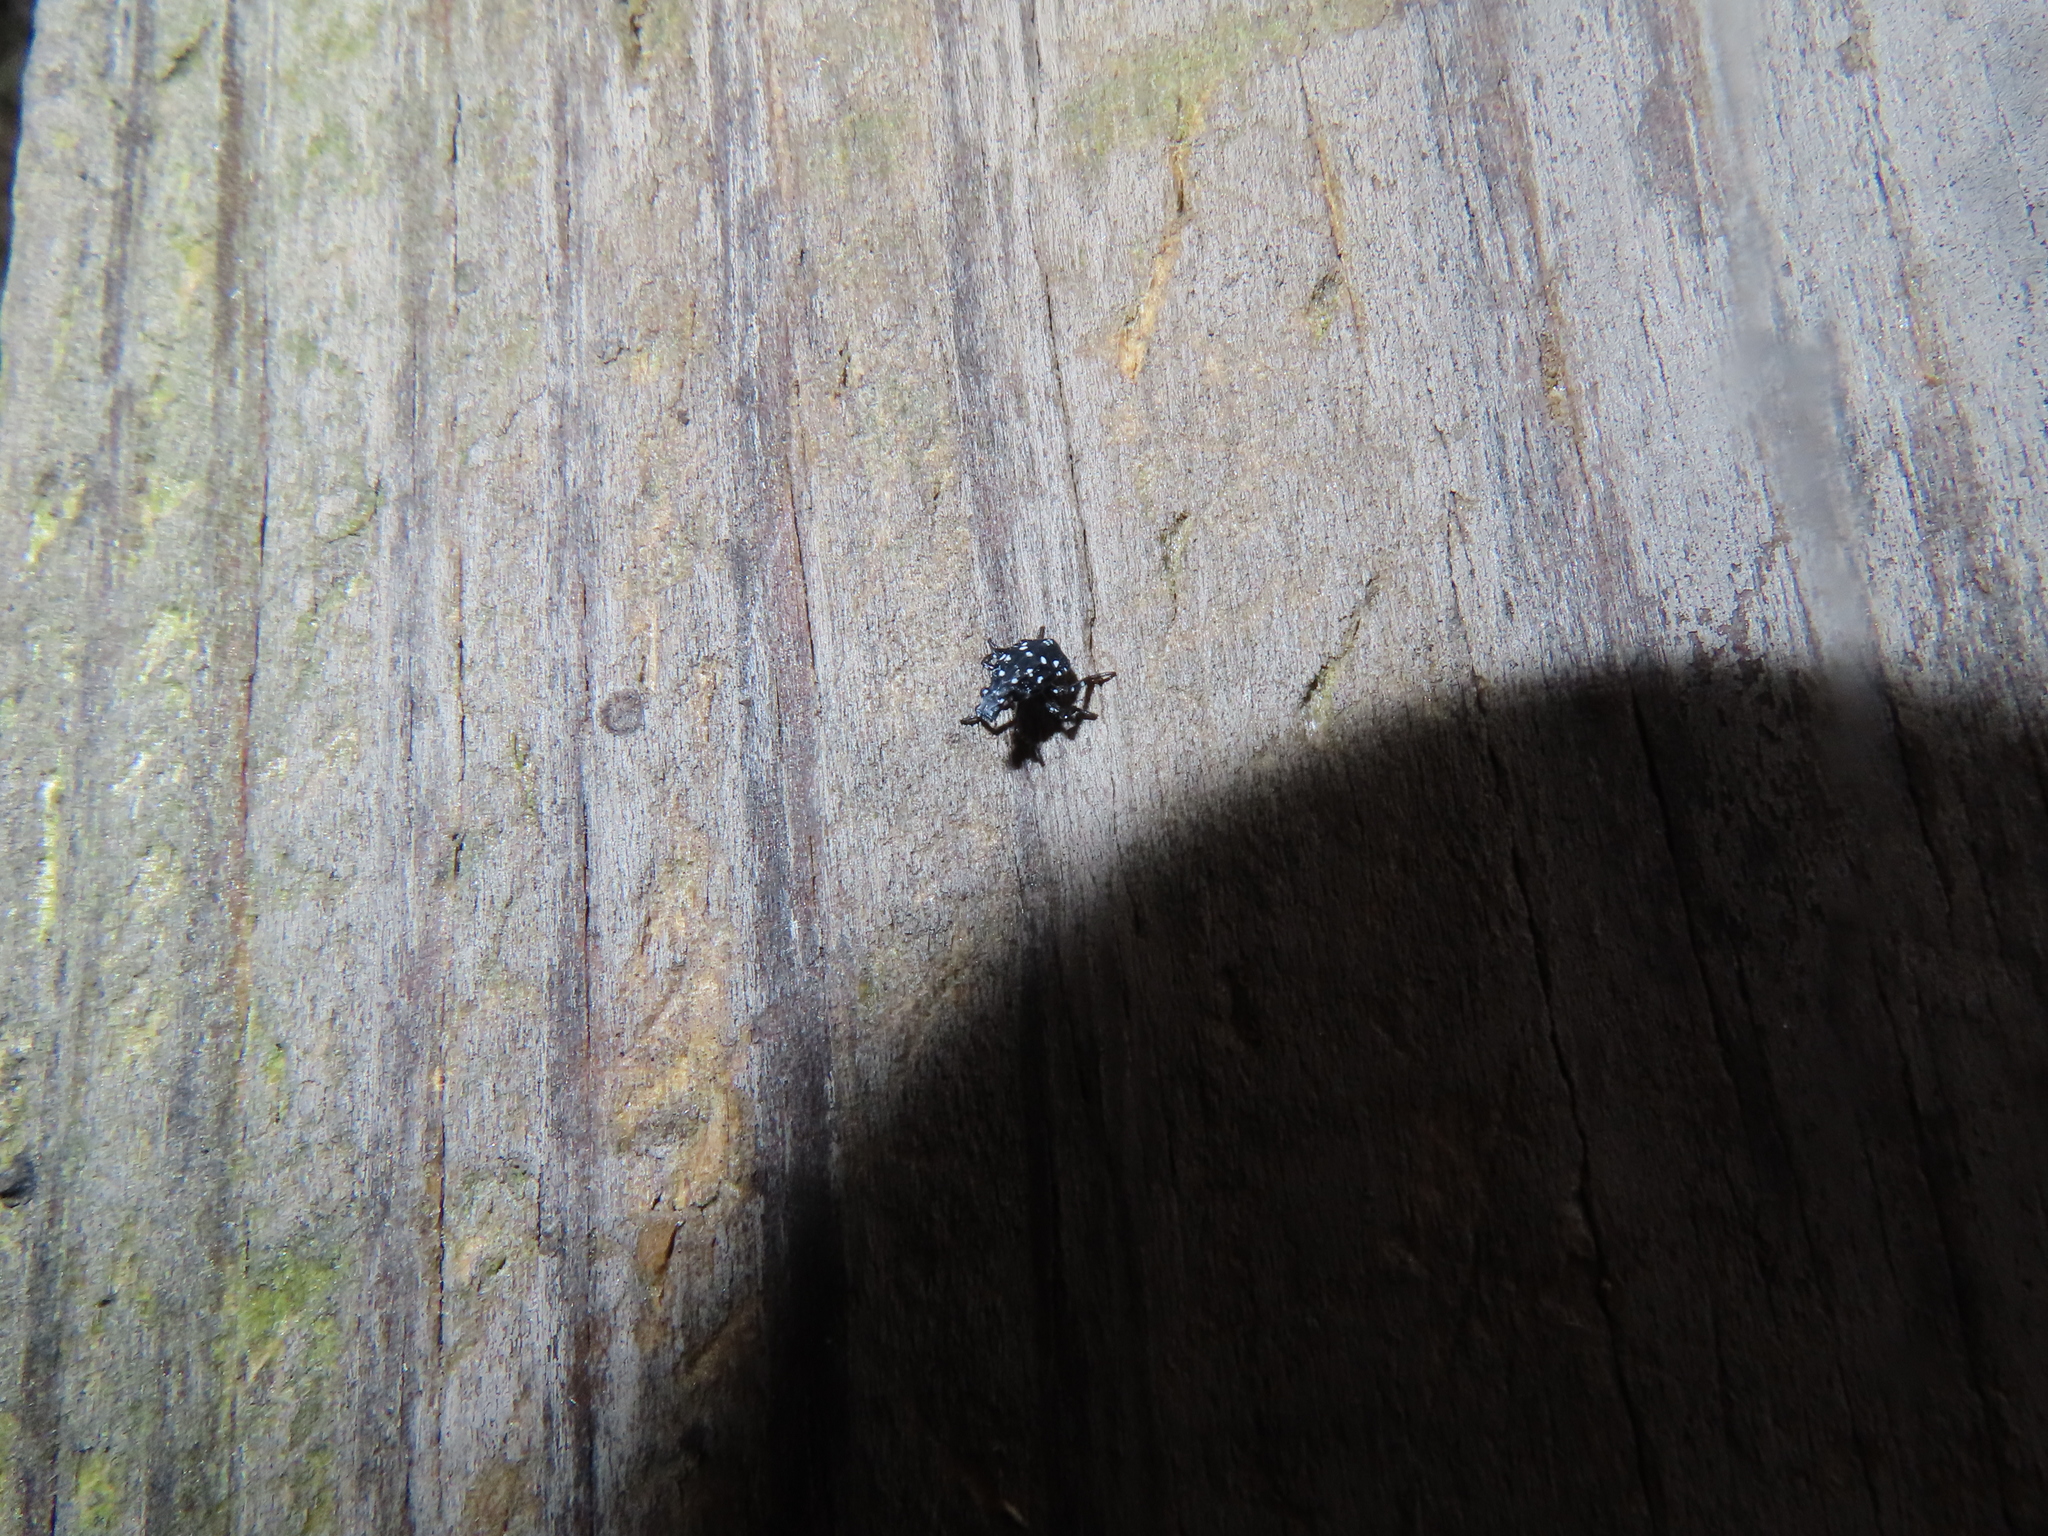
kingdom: Animalia
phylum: Arthropoda
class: Insecta
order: Hemiptera
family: Fulgoridae
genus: Lycorma
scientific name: Lycorma delicatula
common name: Spotted lanternfly
